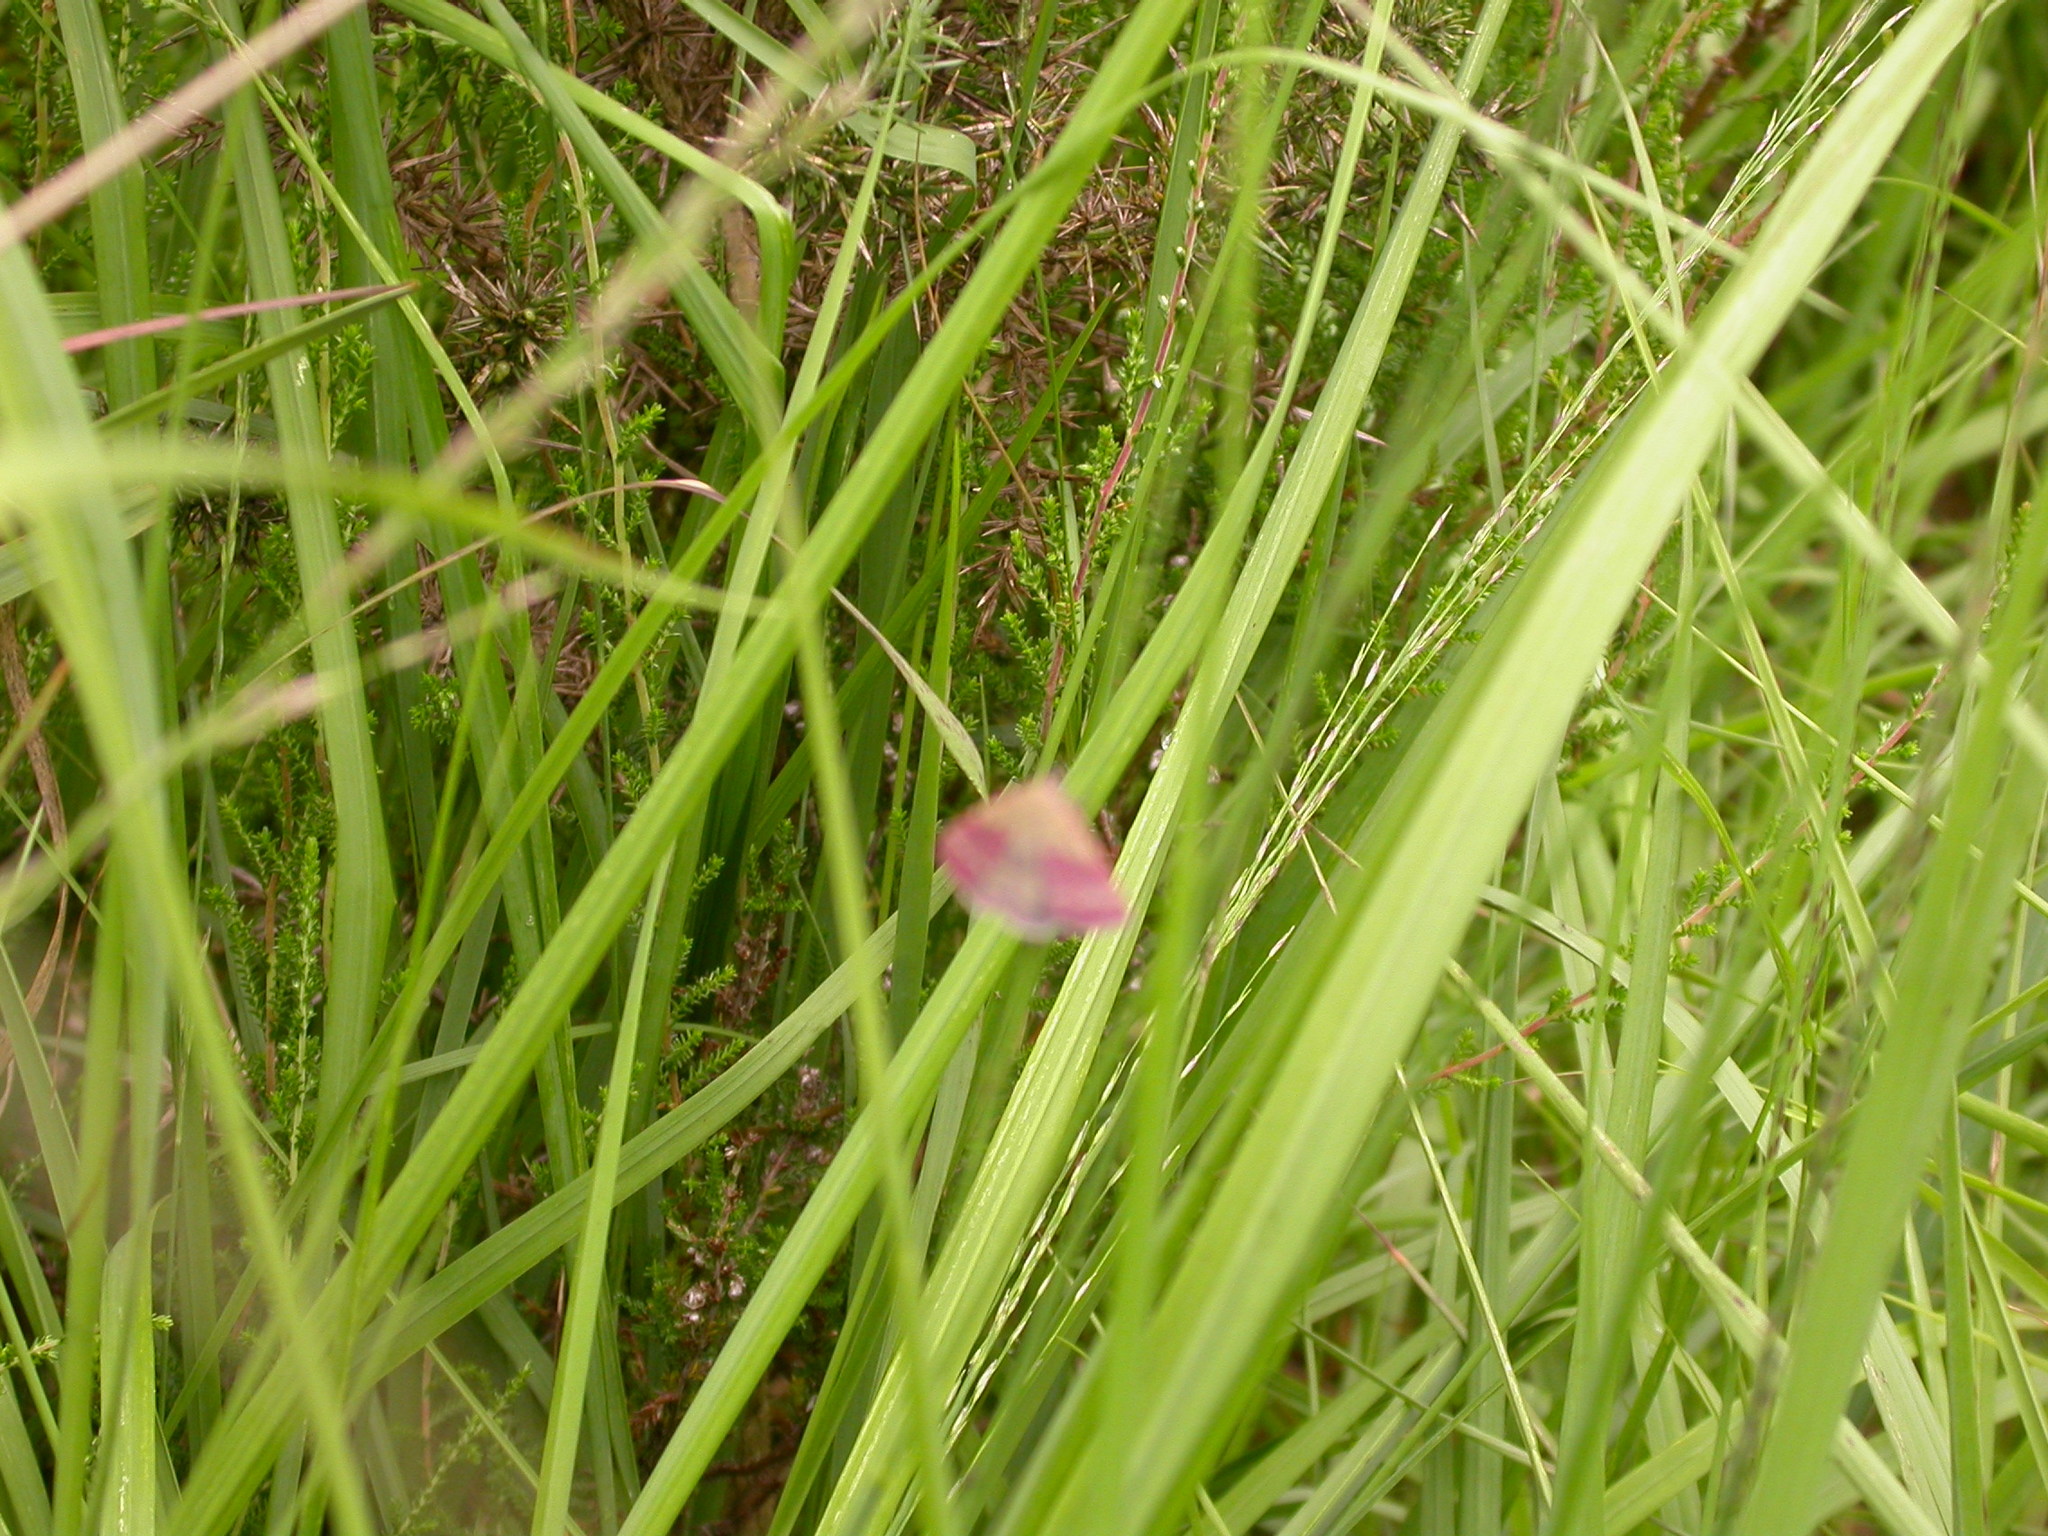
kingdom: Animalia
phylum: Arthropoda
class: Insecta
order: Lepidoptera
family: Erebidae
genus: Phytometra
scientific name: Phytometra viridaria
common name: Small purple-barred
